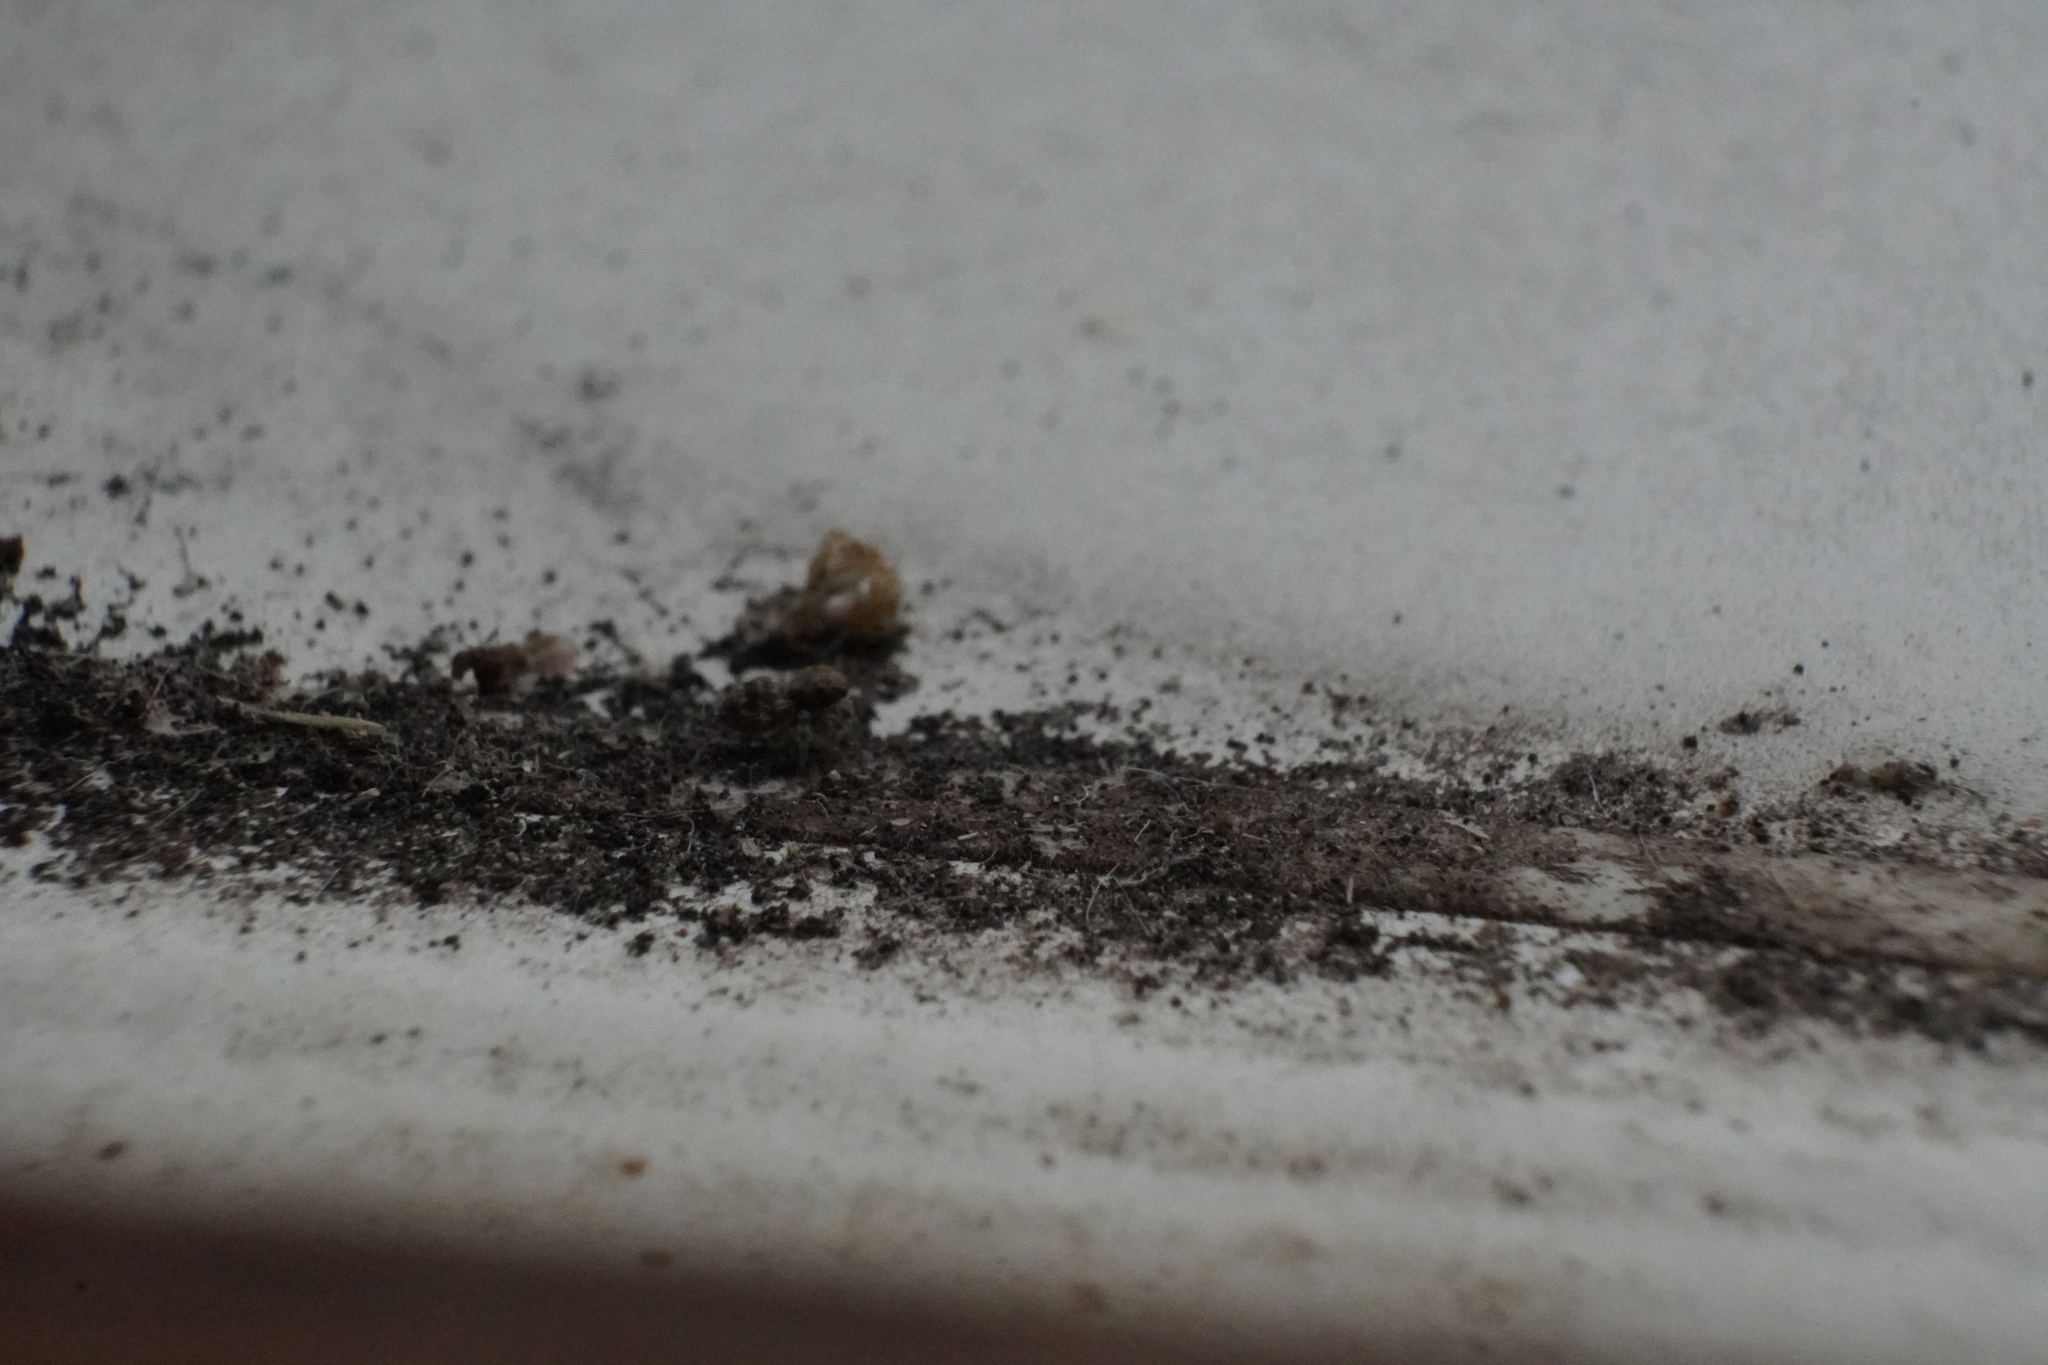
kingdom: Animalia
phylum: Arthropoda
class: Arachnida
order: Araneae
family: Salticidae
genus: Naphrys
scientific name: Naphrys pulex
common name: Flea jumping spider
